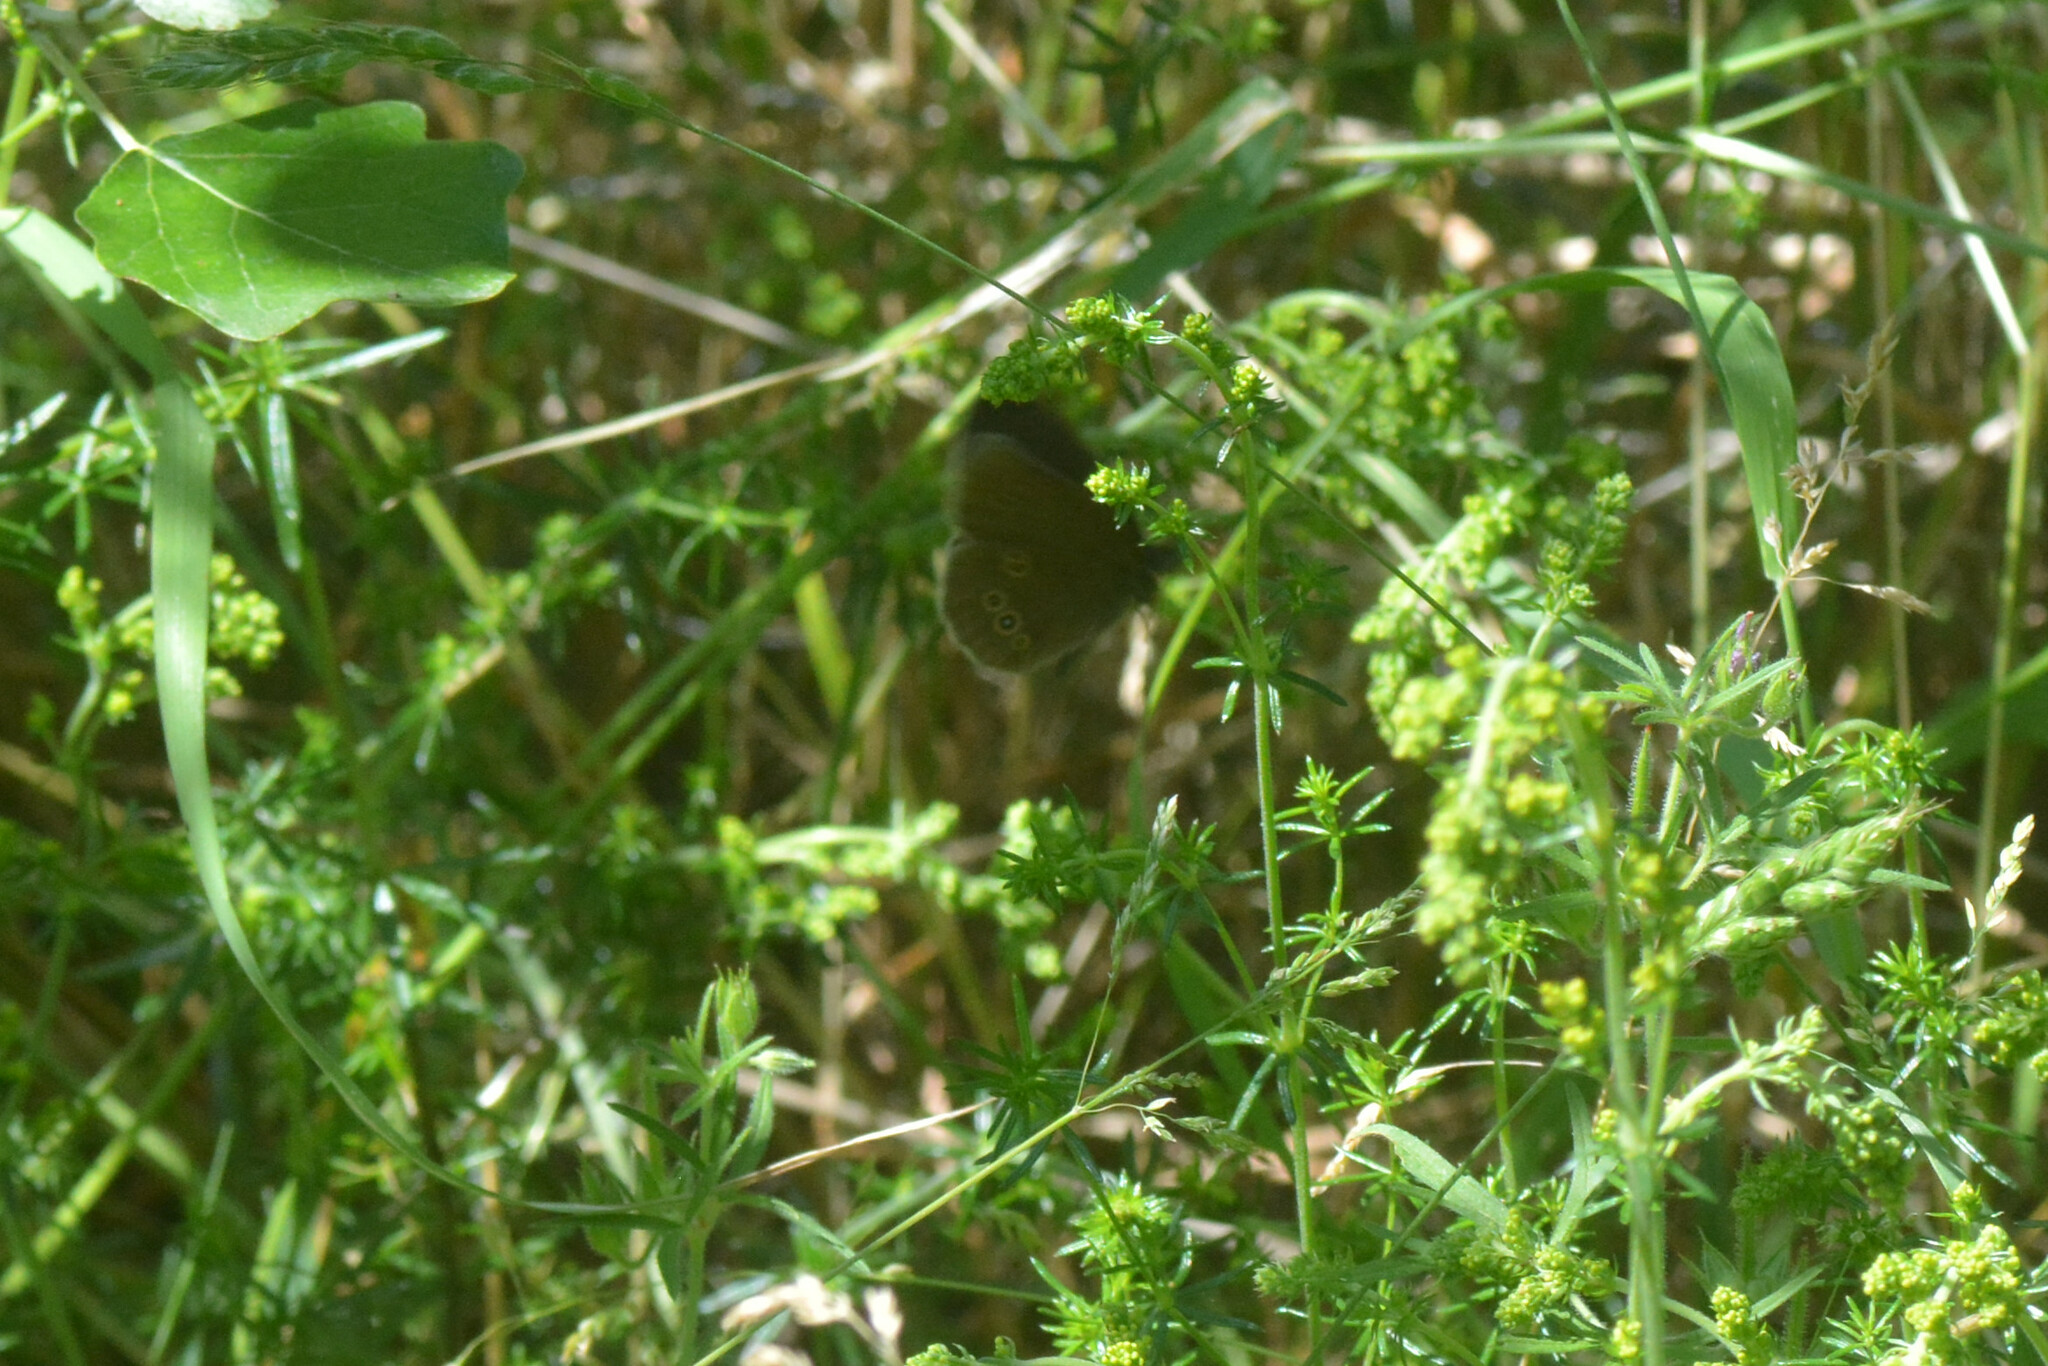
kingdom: Animalia
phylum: Arthropoda
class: Insecta
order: Lepidoptera
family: Nymphalidae
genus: Aphantopus
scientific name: Aphantopus hyperantus
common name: Ringlet
